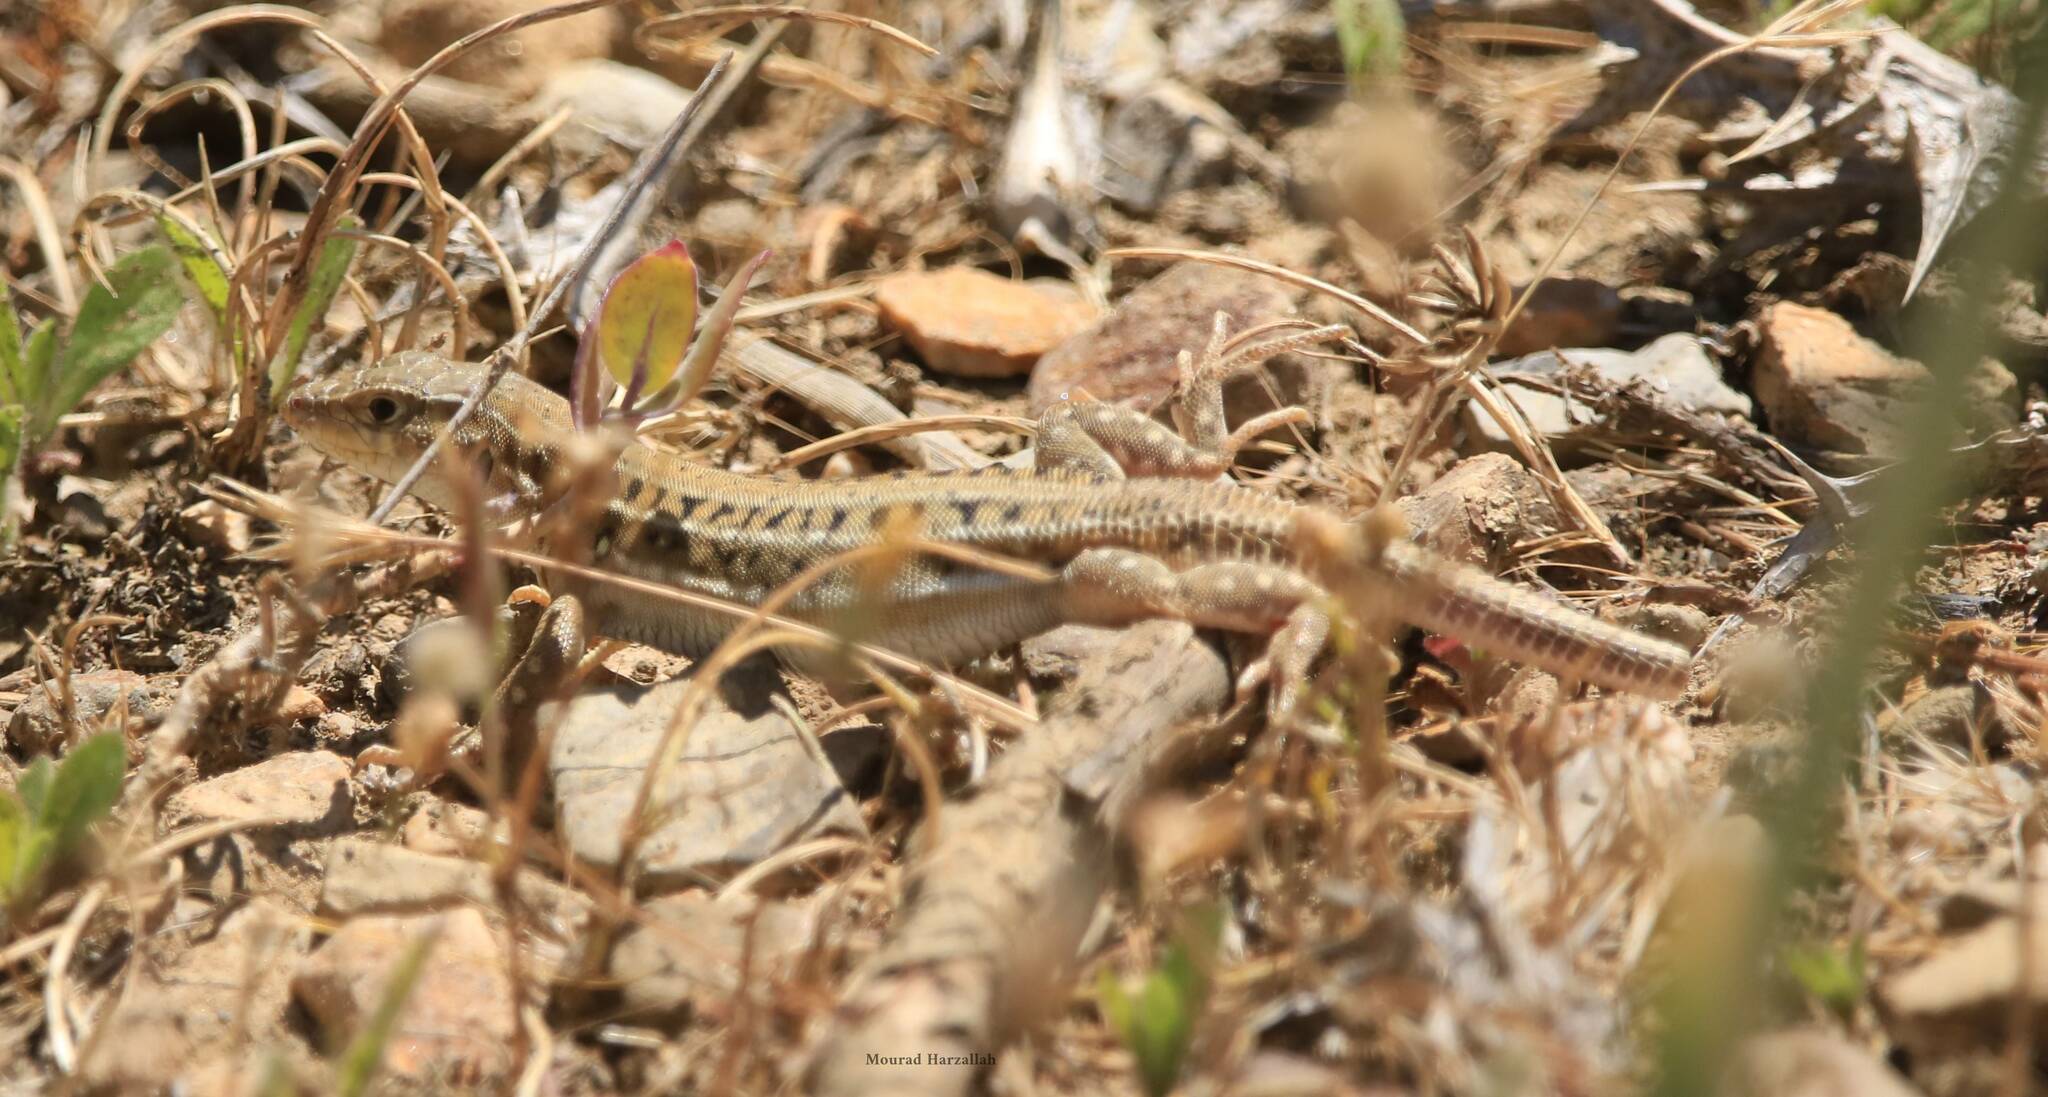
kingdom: Animalia
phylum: Chordata
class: Squamata
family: Lacertidae
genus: Acanthodactylus
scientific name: Acanthodactylus erythrurus
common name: Spiny-footed lizard
